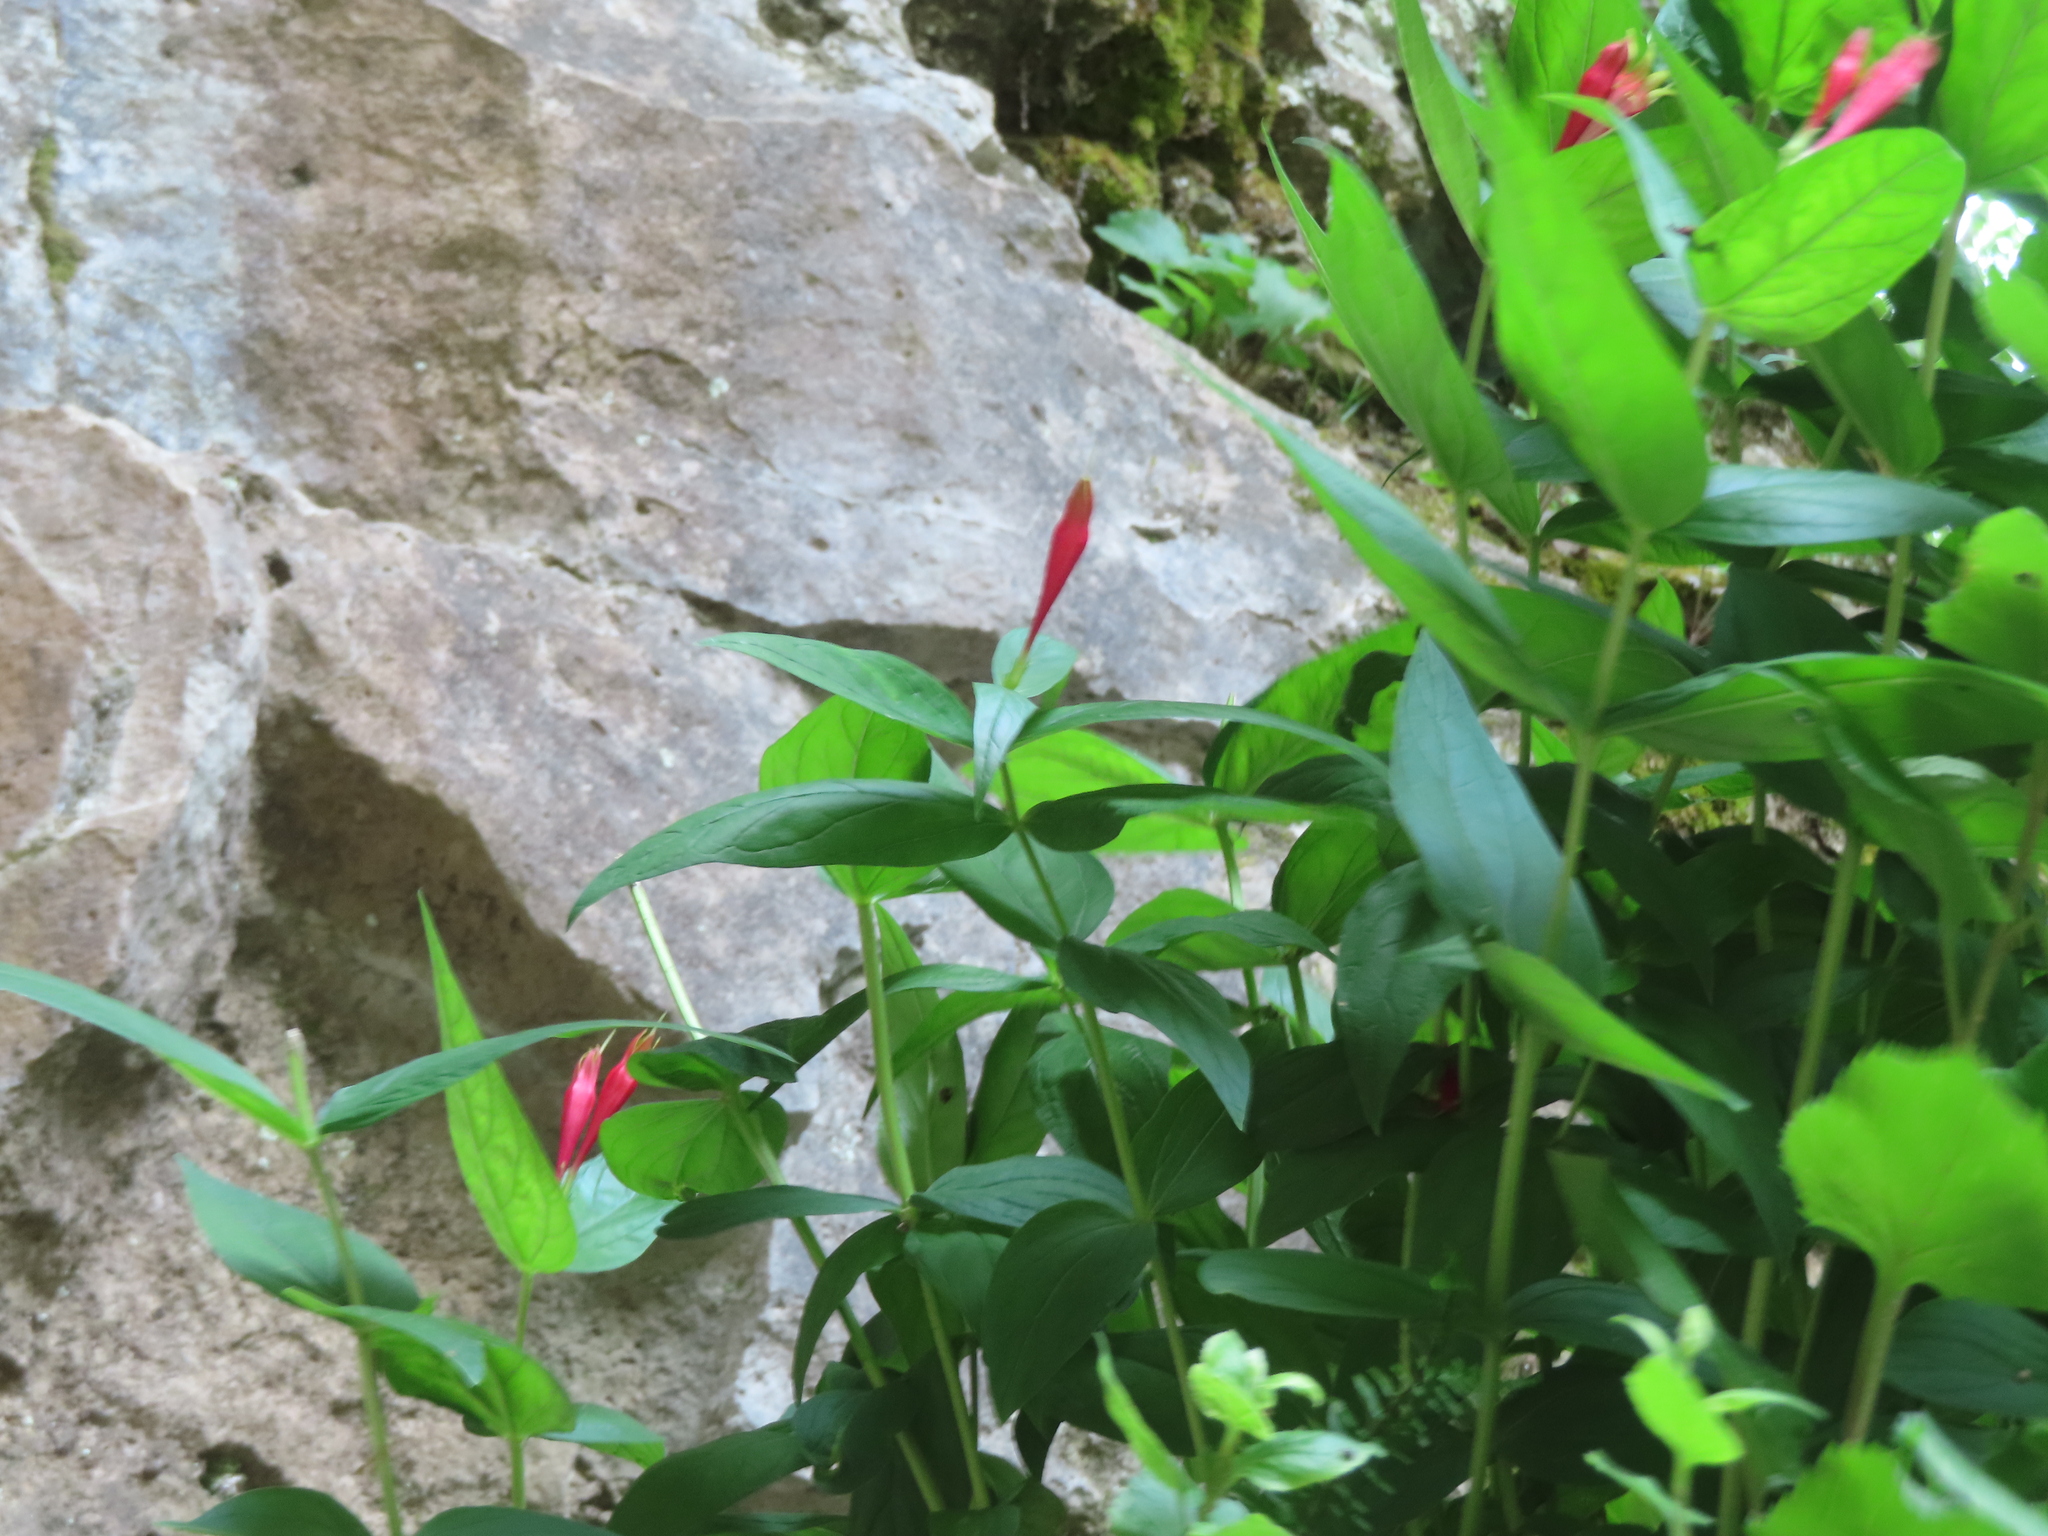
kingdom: Plantae
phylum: Tracheophyta
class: Magnoliopsida
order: Gentianales
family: Loganiaceae
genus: Spigelia
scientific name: Spigelia marilandica
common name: Indian-pink
